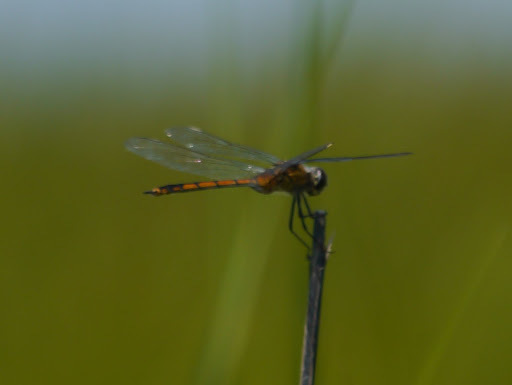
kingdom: Animalia
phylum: Arthropoda
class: Insecta
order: Odonata
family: Libellulidae
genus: Brachymesia
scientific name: Brachymesia gravida
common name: Four-spotted pennant
